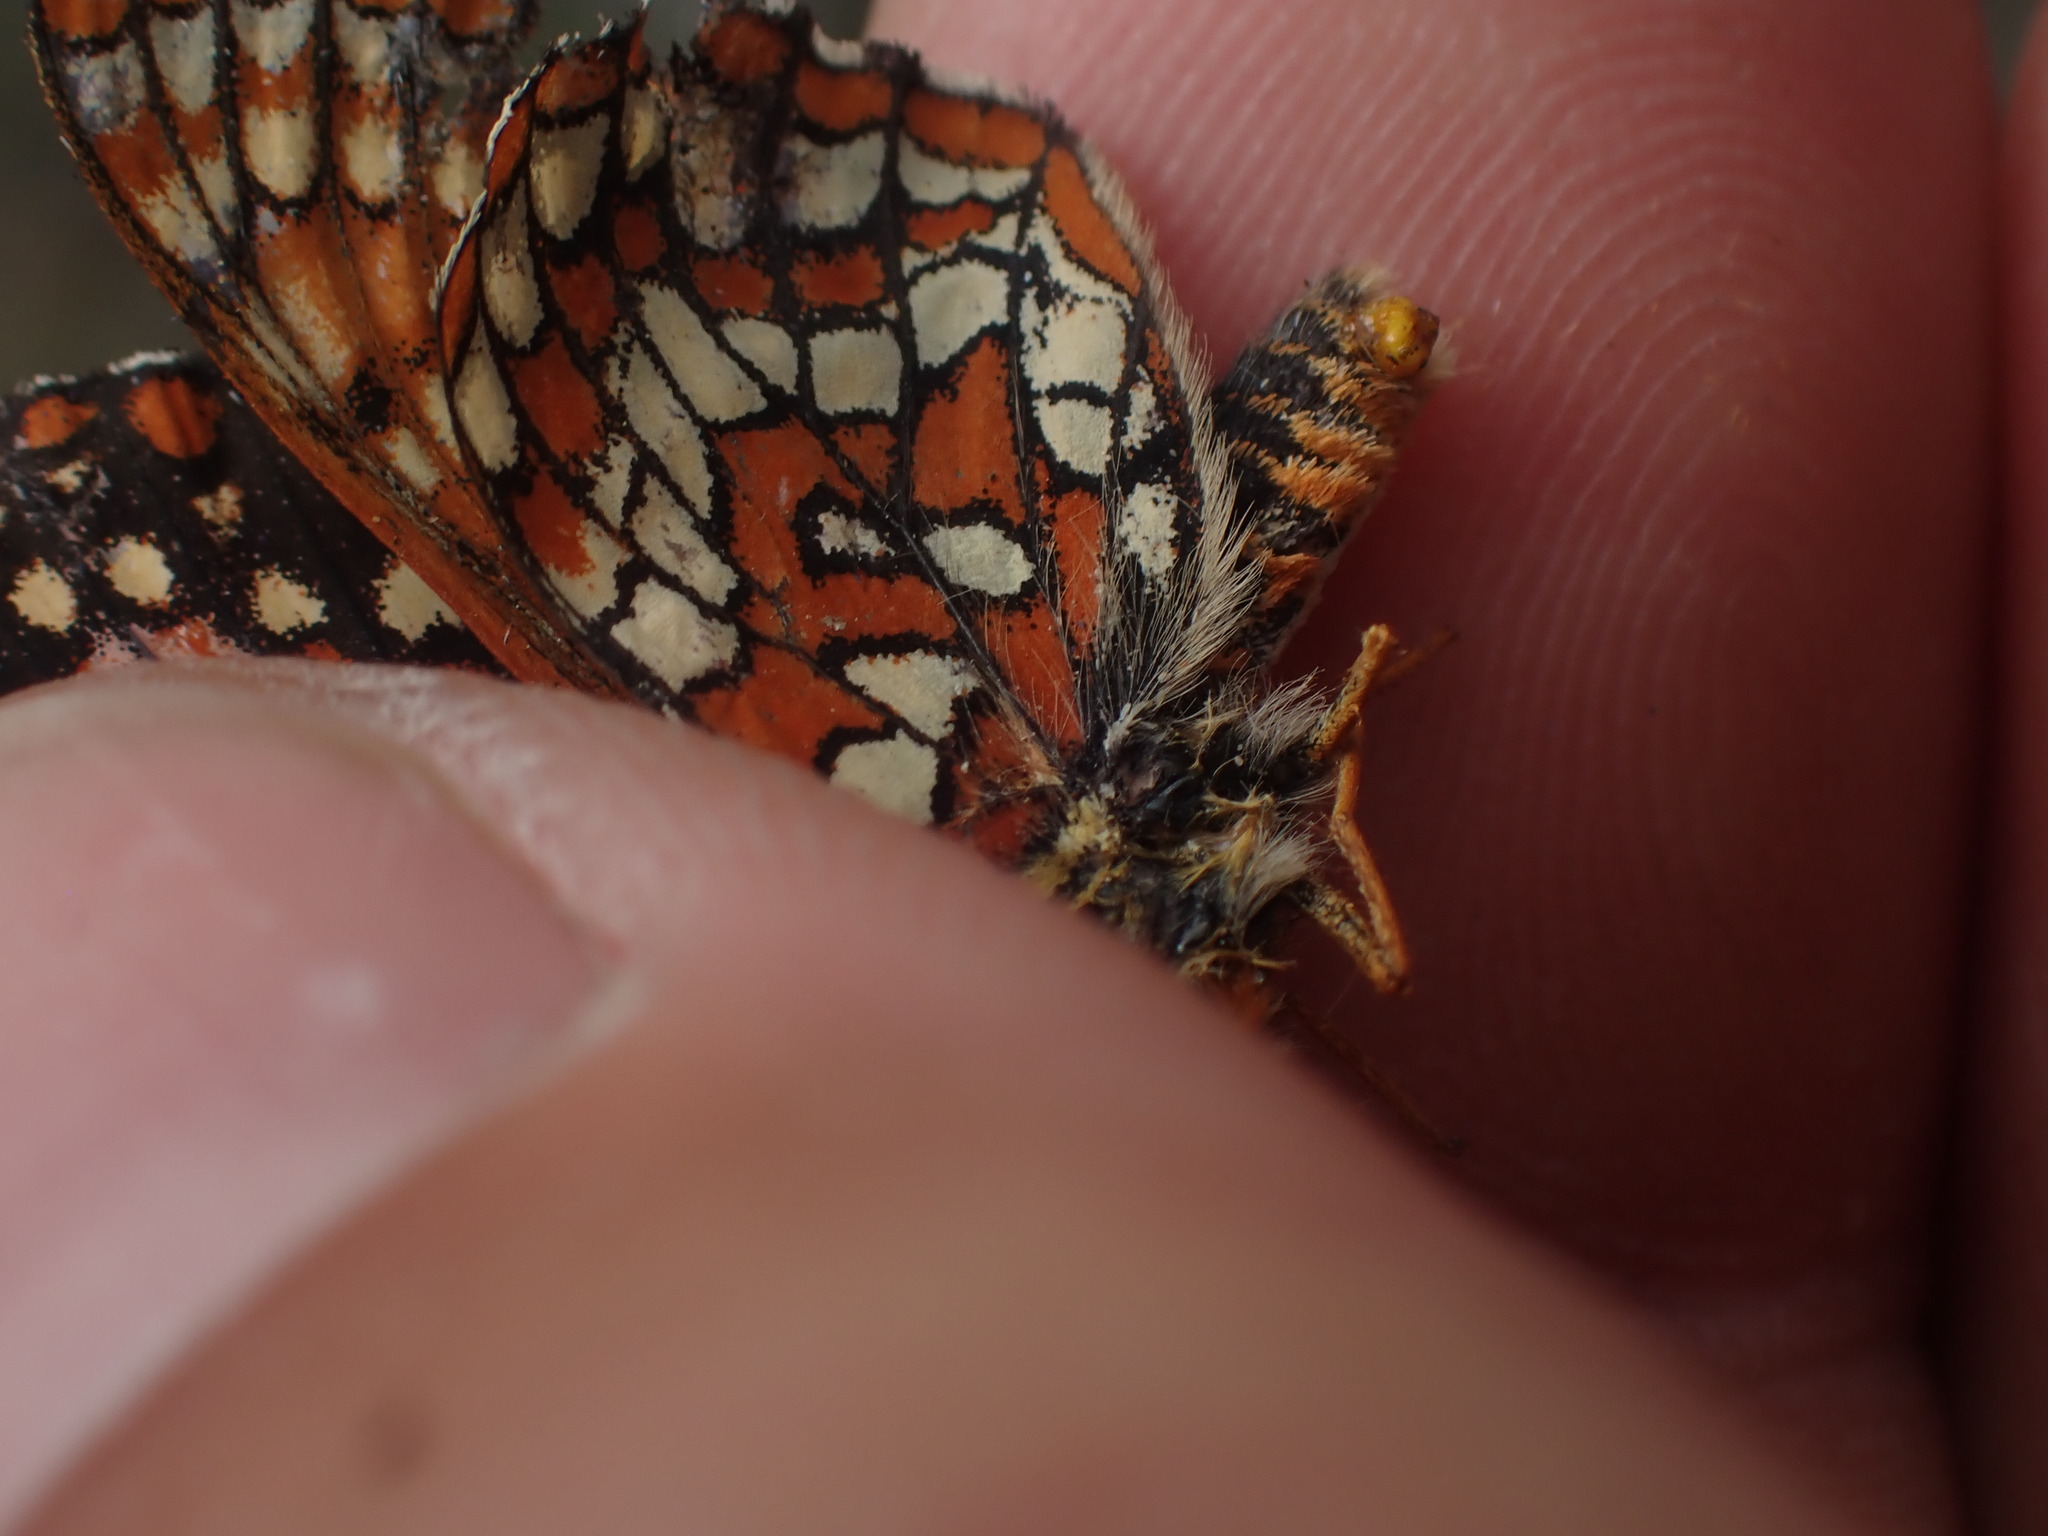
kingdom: Animalia
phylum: Arthropoda
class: Insecta
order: Lepidoptera
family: Nymphalidae
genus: Occidryas
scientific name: Occidryas anicia
